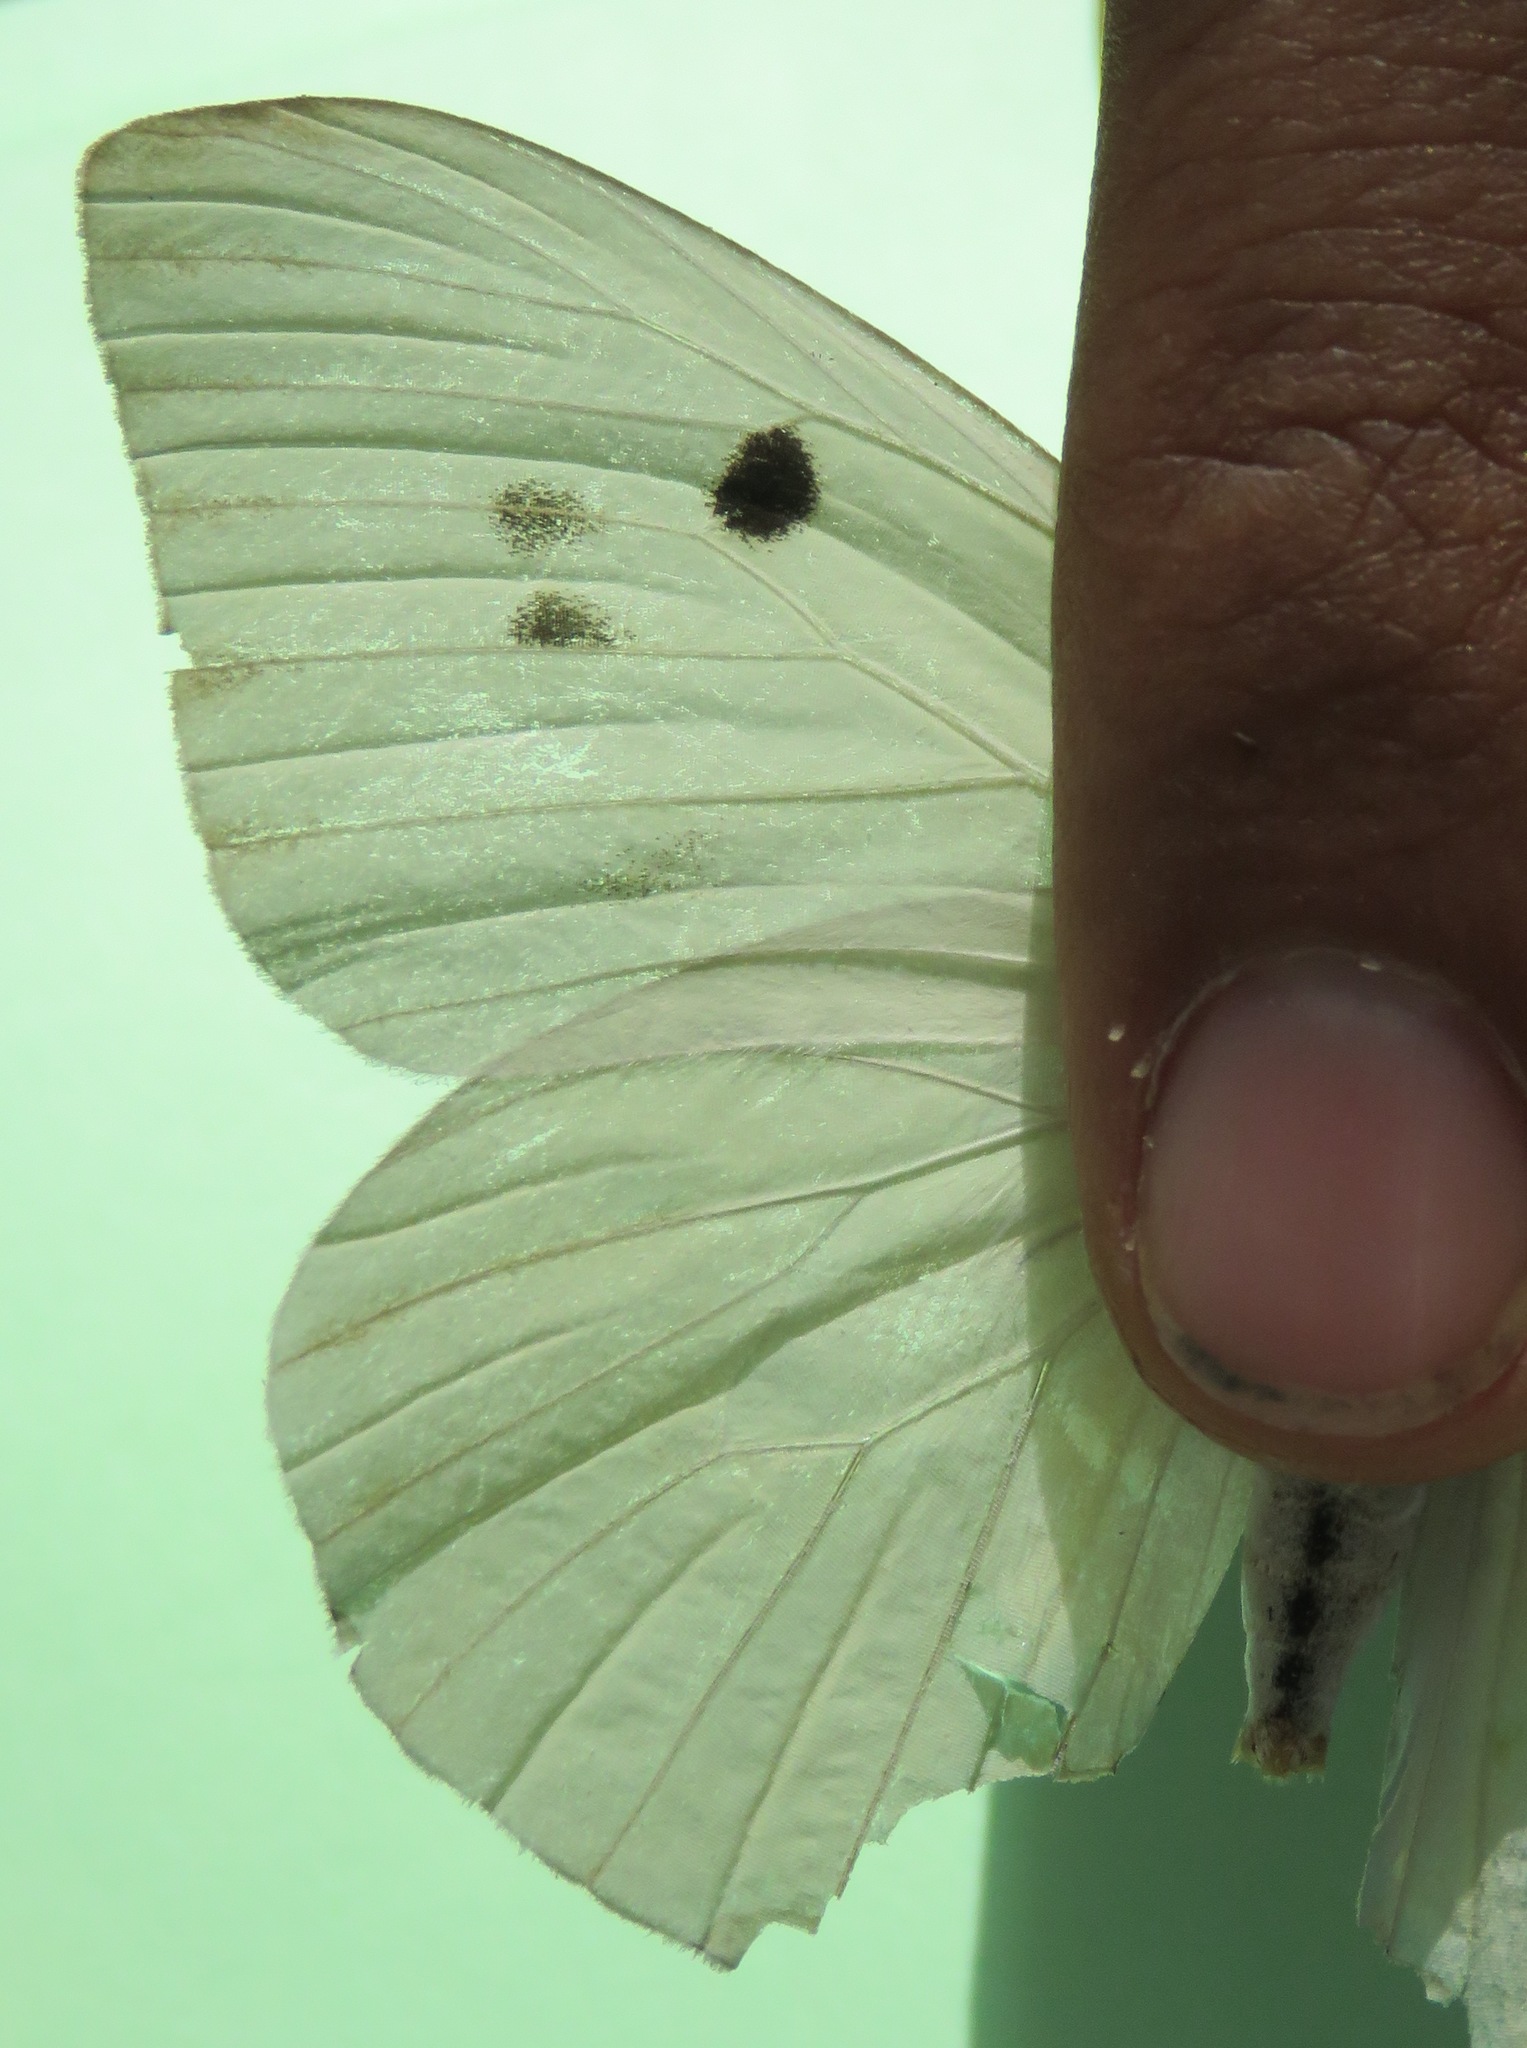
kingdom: Animalia
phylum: Arthropoda
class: Insecta
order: Lepidoptera
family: Pieridae
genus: Ganyra
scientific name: Ganyra josephina
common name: Giant white
